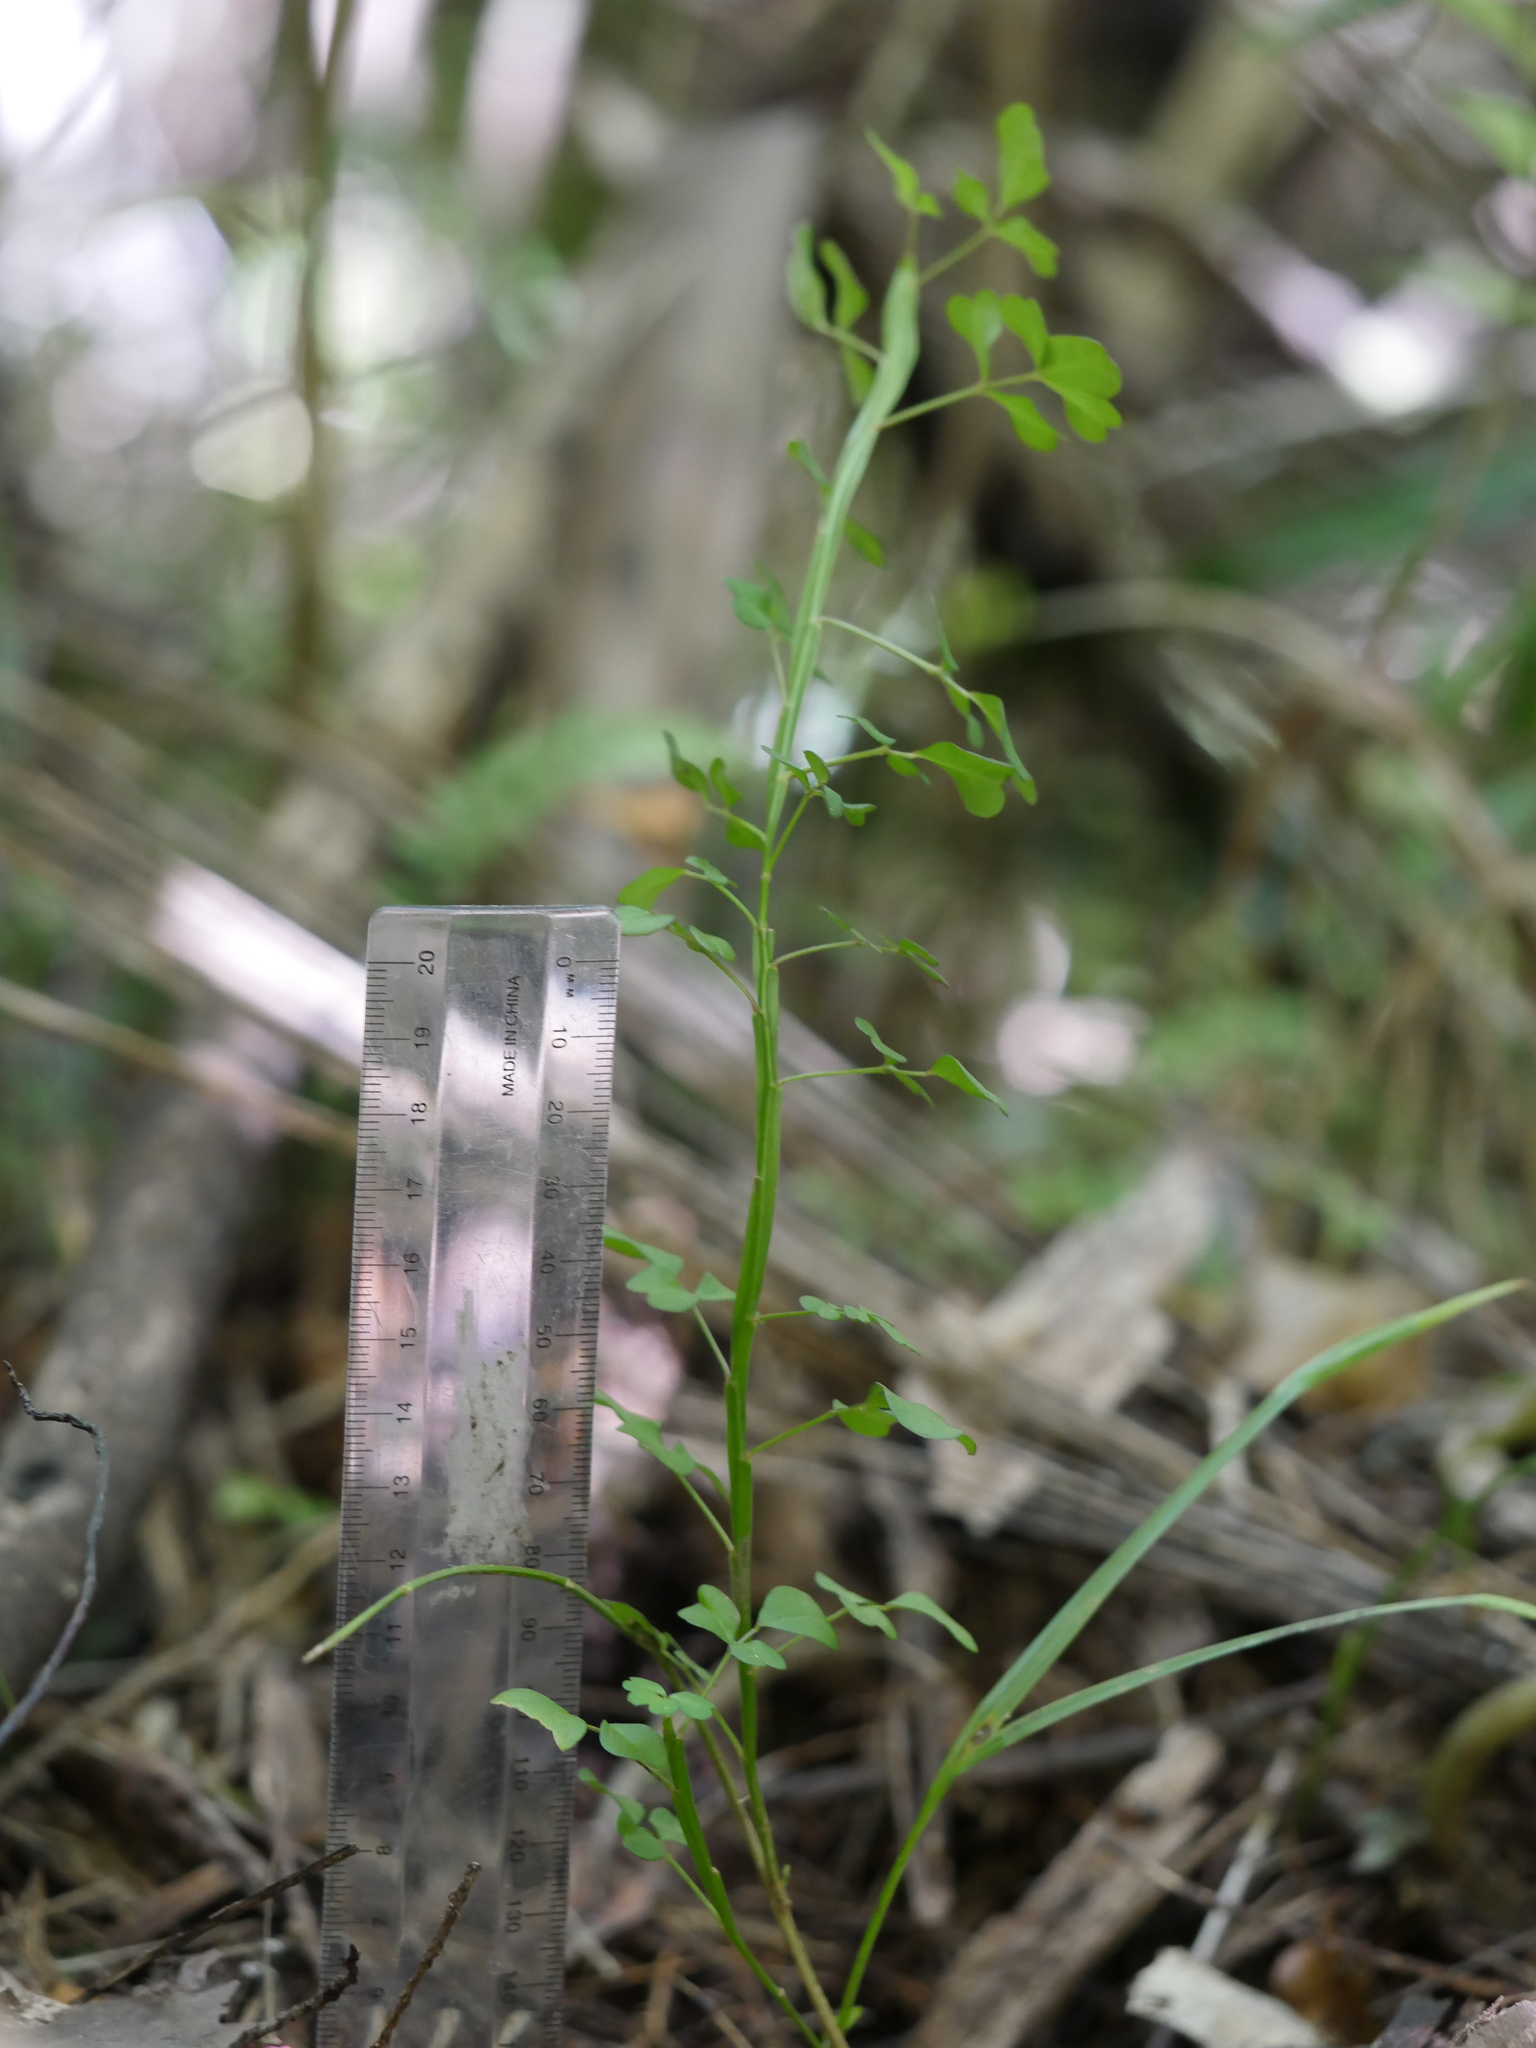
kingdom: Plantae
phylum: Tracheophyta
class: Magnoliopsida
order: Fabales
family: Fabaceae
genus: Carmichaelia
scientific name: Carmichaelia australis
